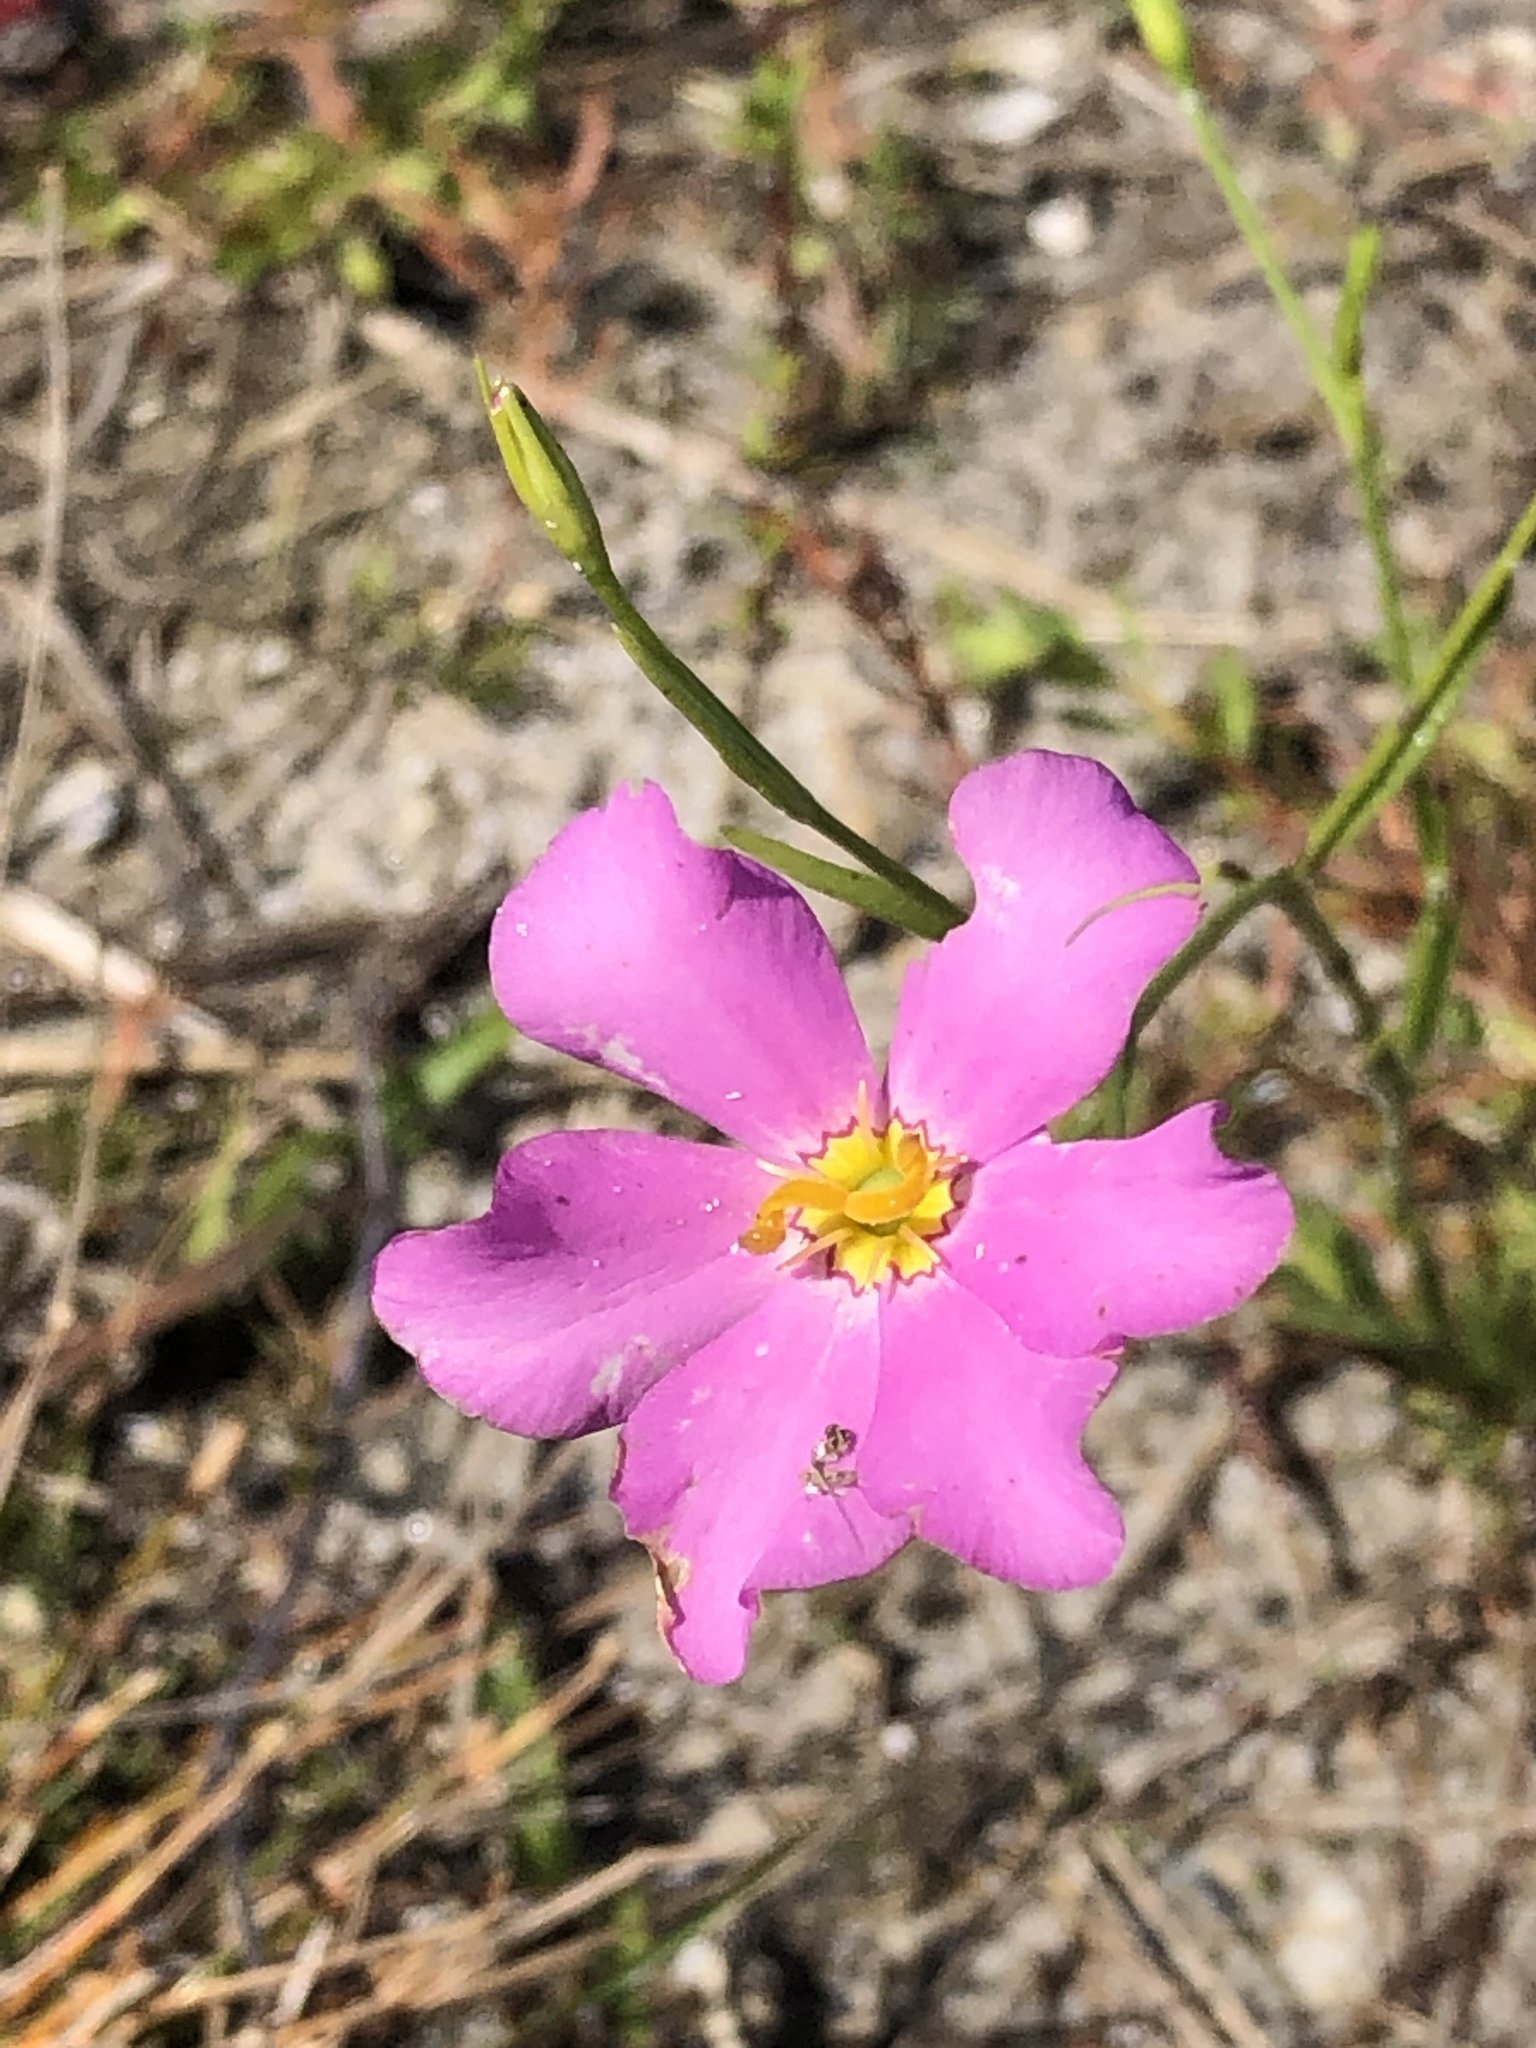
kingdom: Plantae
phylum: Tracheophyta
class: Magnoliopsida
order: Gentianales
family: Gentianaceae
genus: Sabatia
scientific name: Sabatia grandiflora
